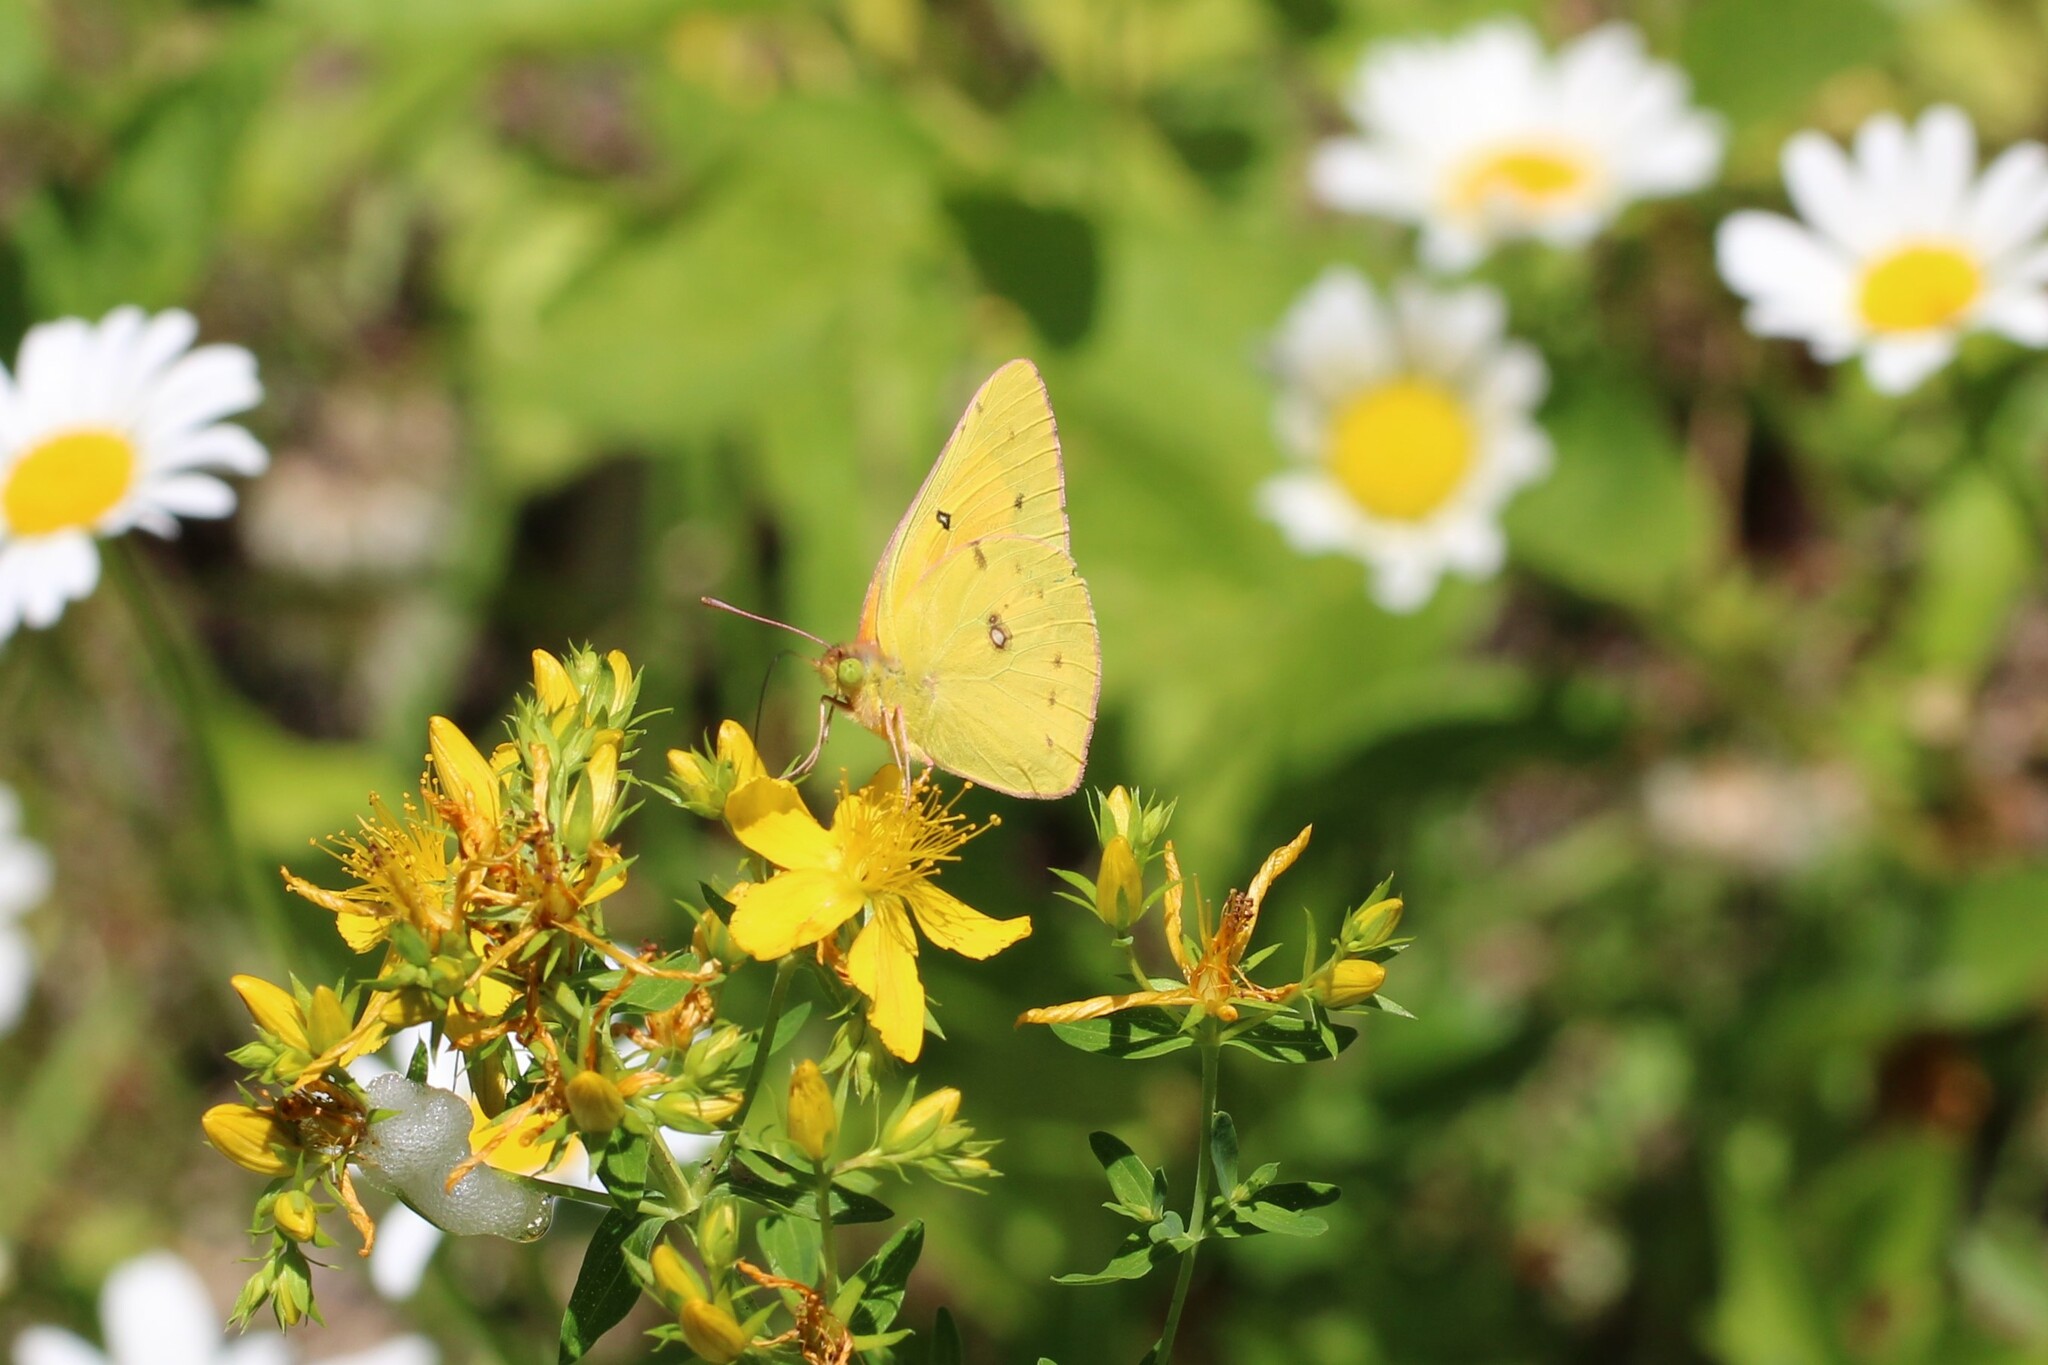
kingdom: Animalia
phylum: Arthropoda
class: Insecta
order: Lepidoptera
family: Pieridae
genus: Colias
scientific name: Colias eurytheme
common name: Alfalfa butterfly
